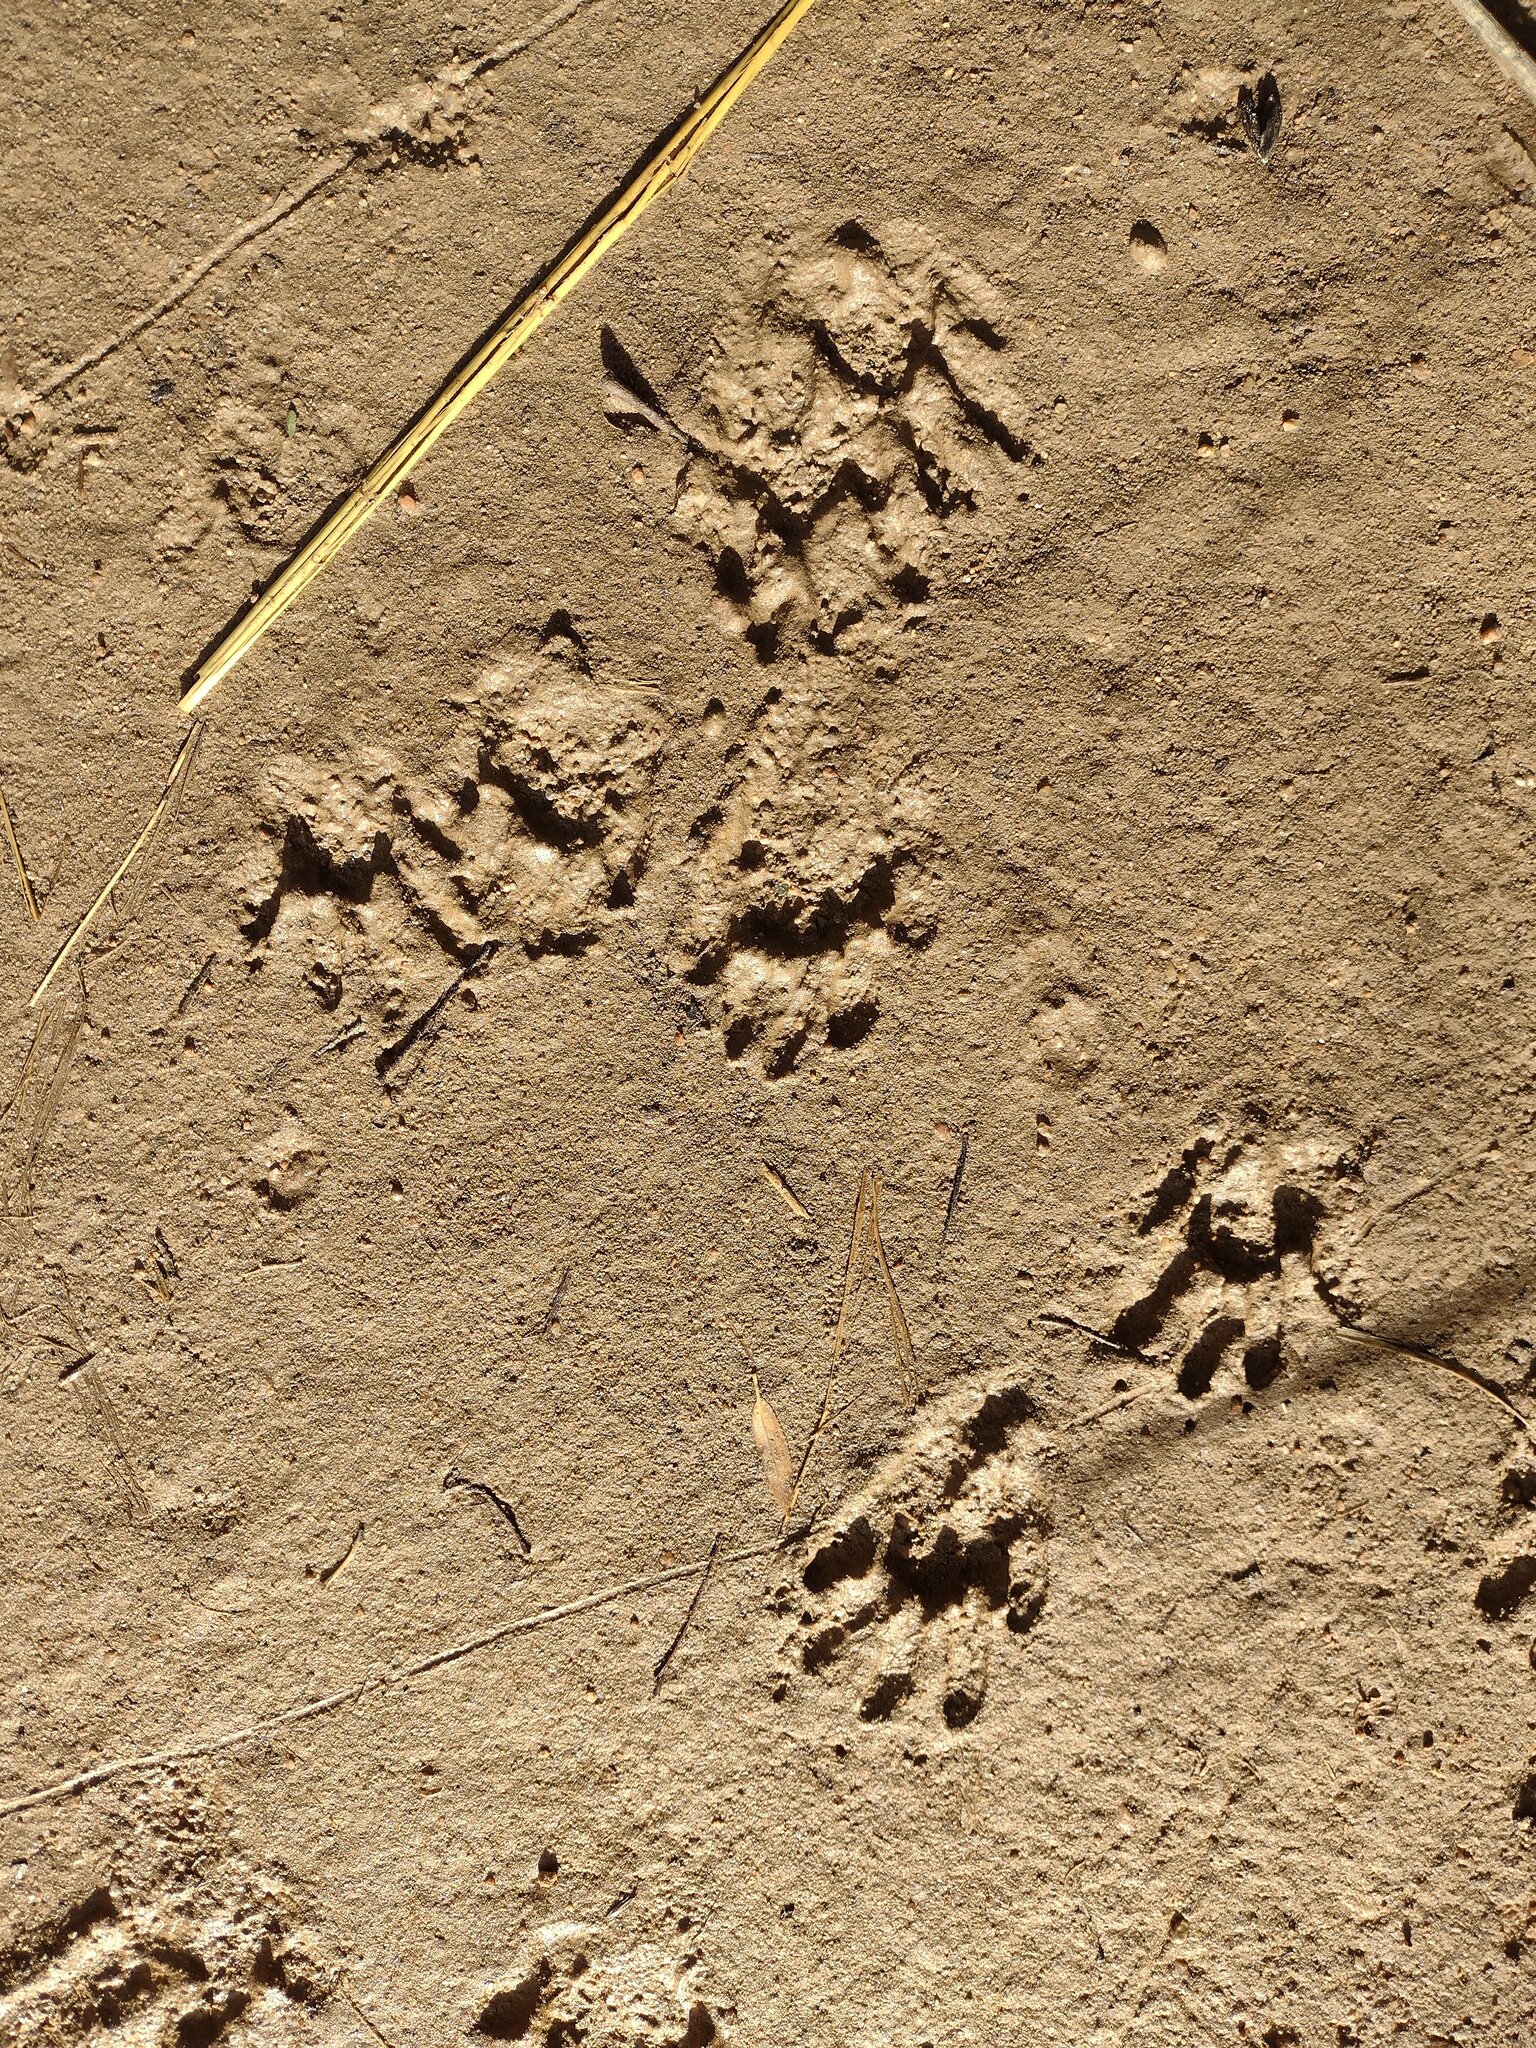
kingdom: Animalia
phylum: Chordata
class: Mammalia
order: Carnivora
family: Procyonidae
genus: Procyon
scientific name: Procyon lotor
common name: Raccoon
